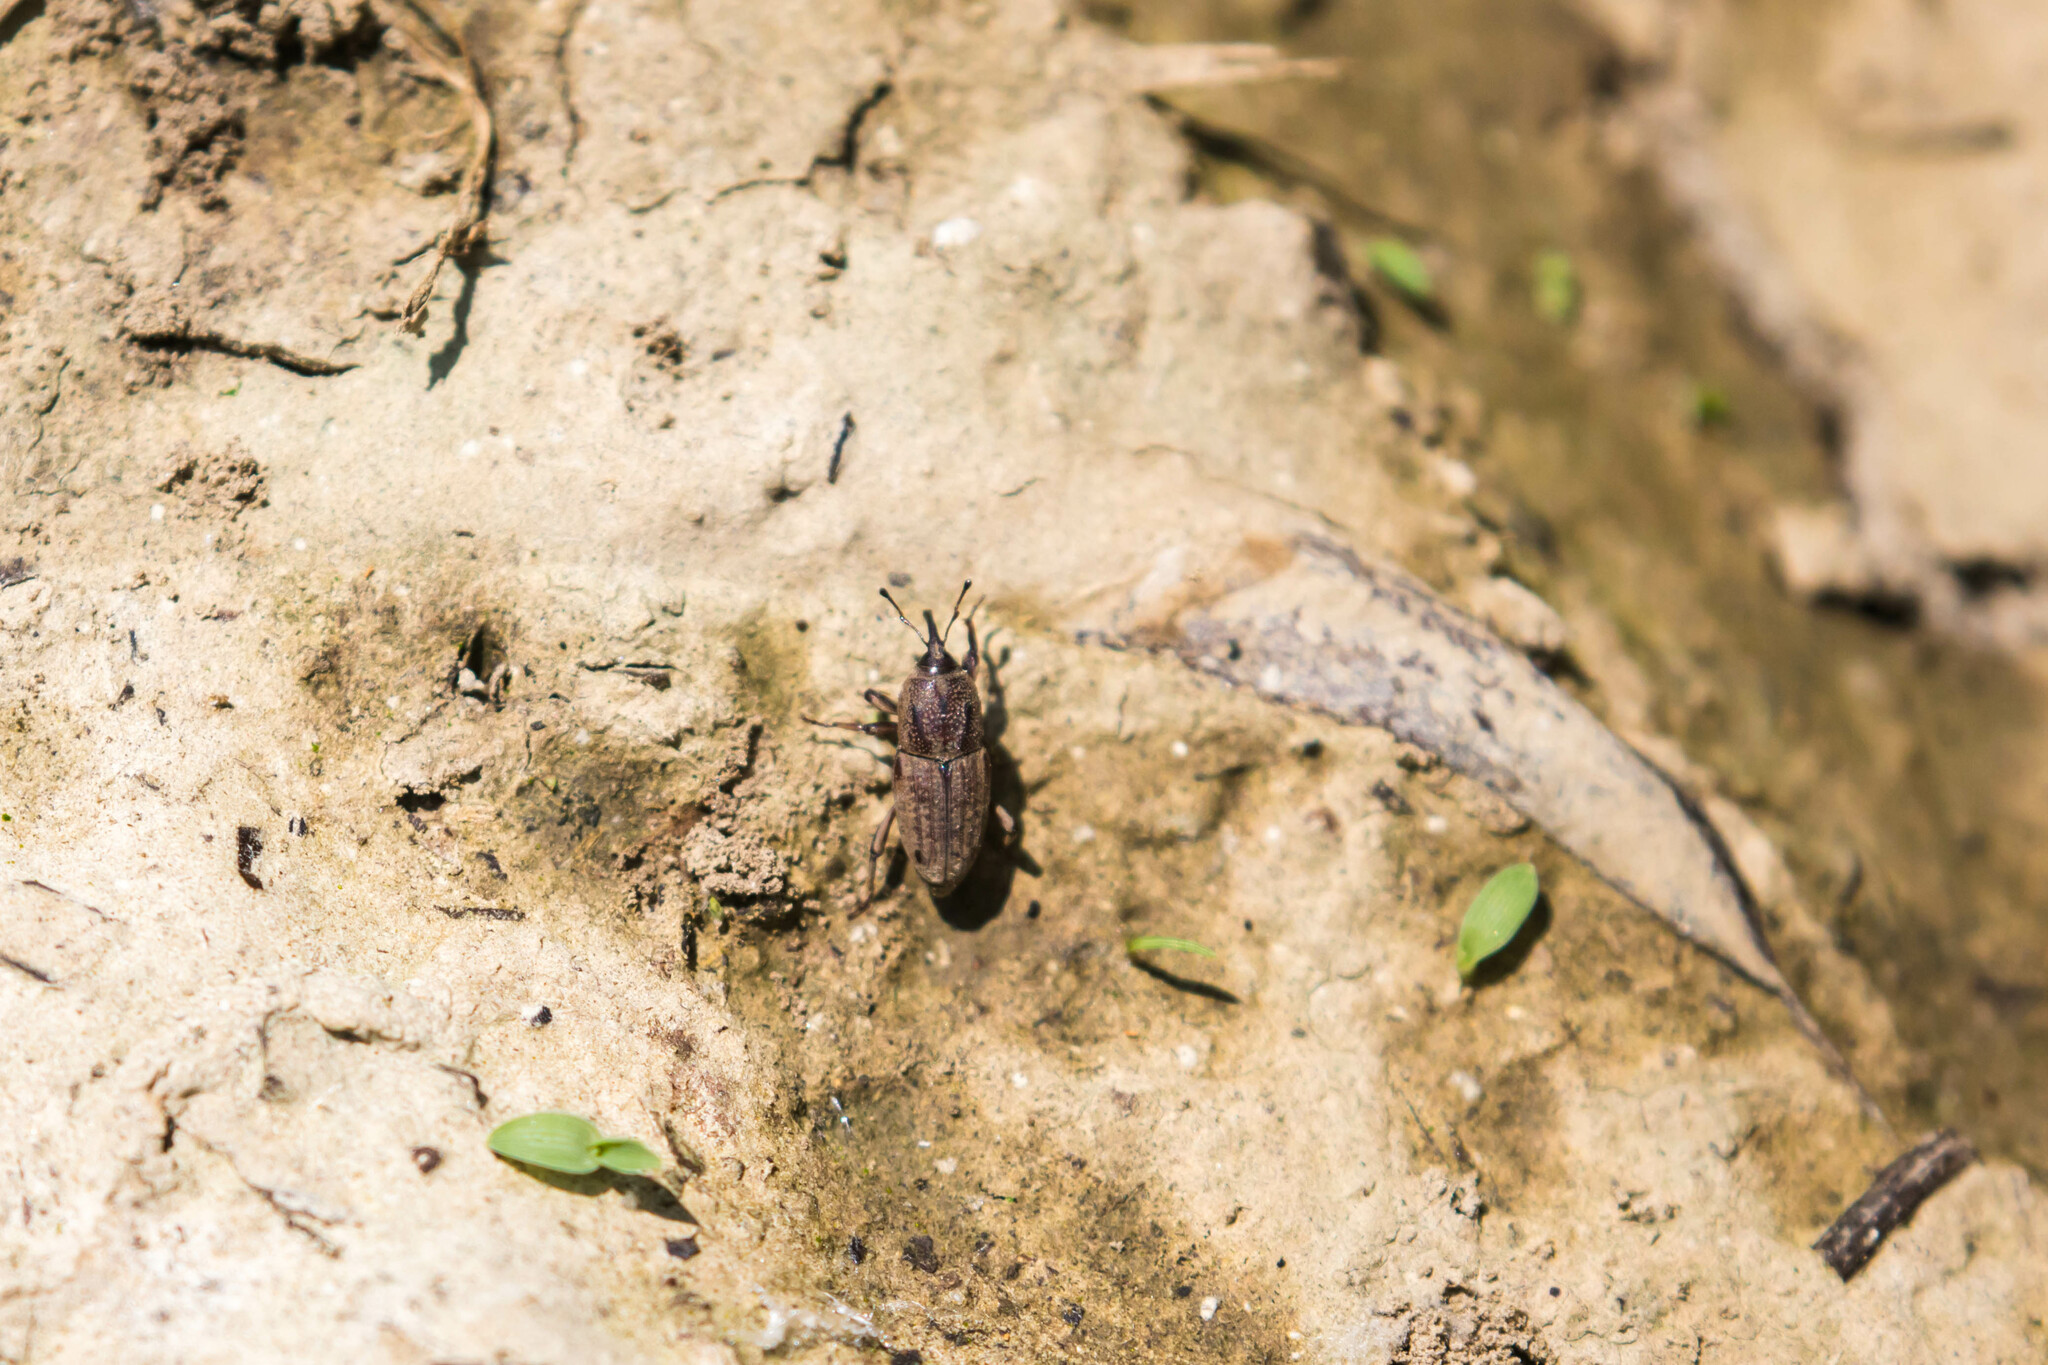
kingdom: Animalia
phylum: Arthropoda
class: Insecta
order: Coleoptera
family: Dryophthoridae
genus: Sphenophorus
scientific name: Sphenophorus venatus
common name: Hunting billbug
